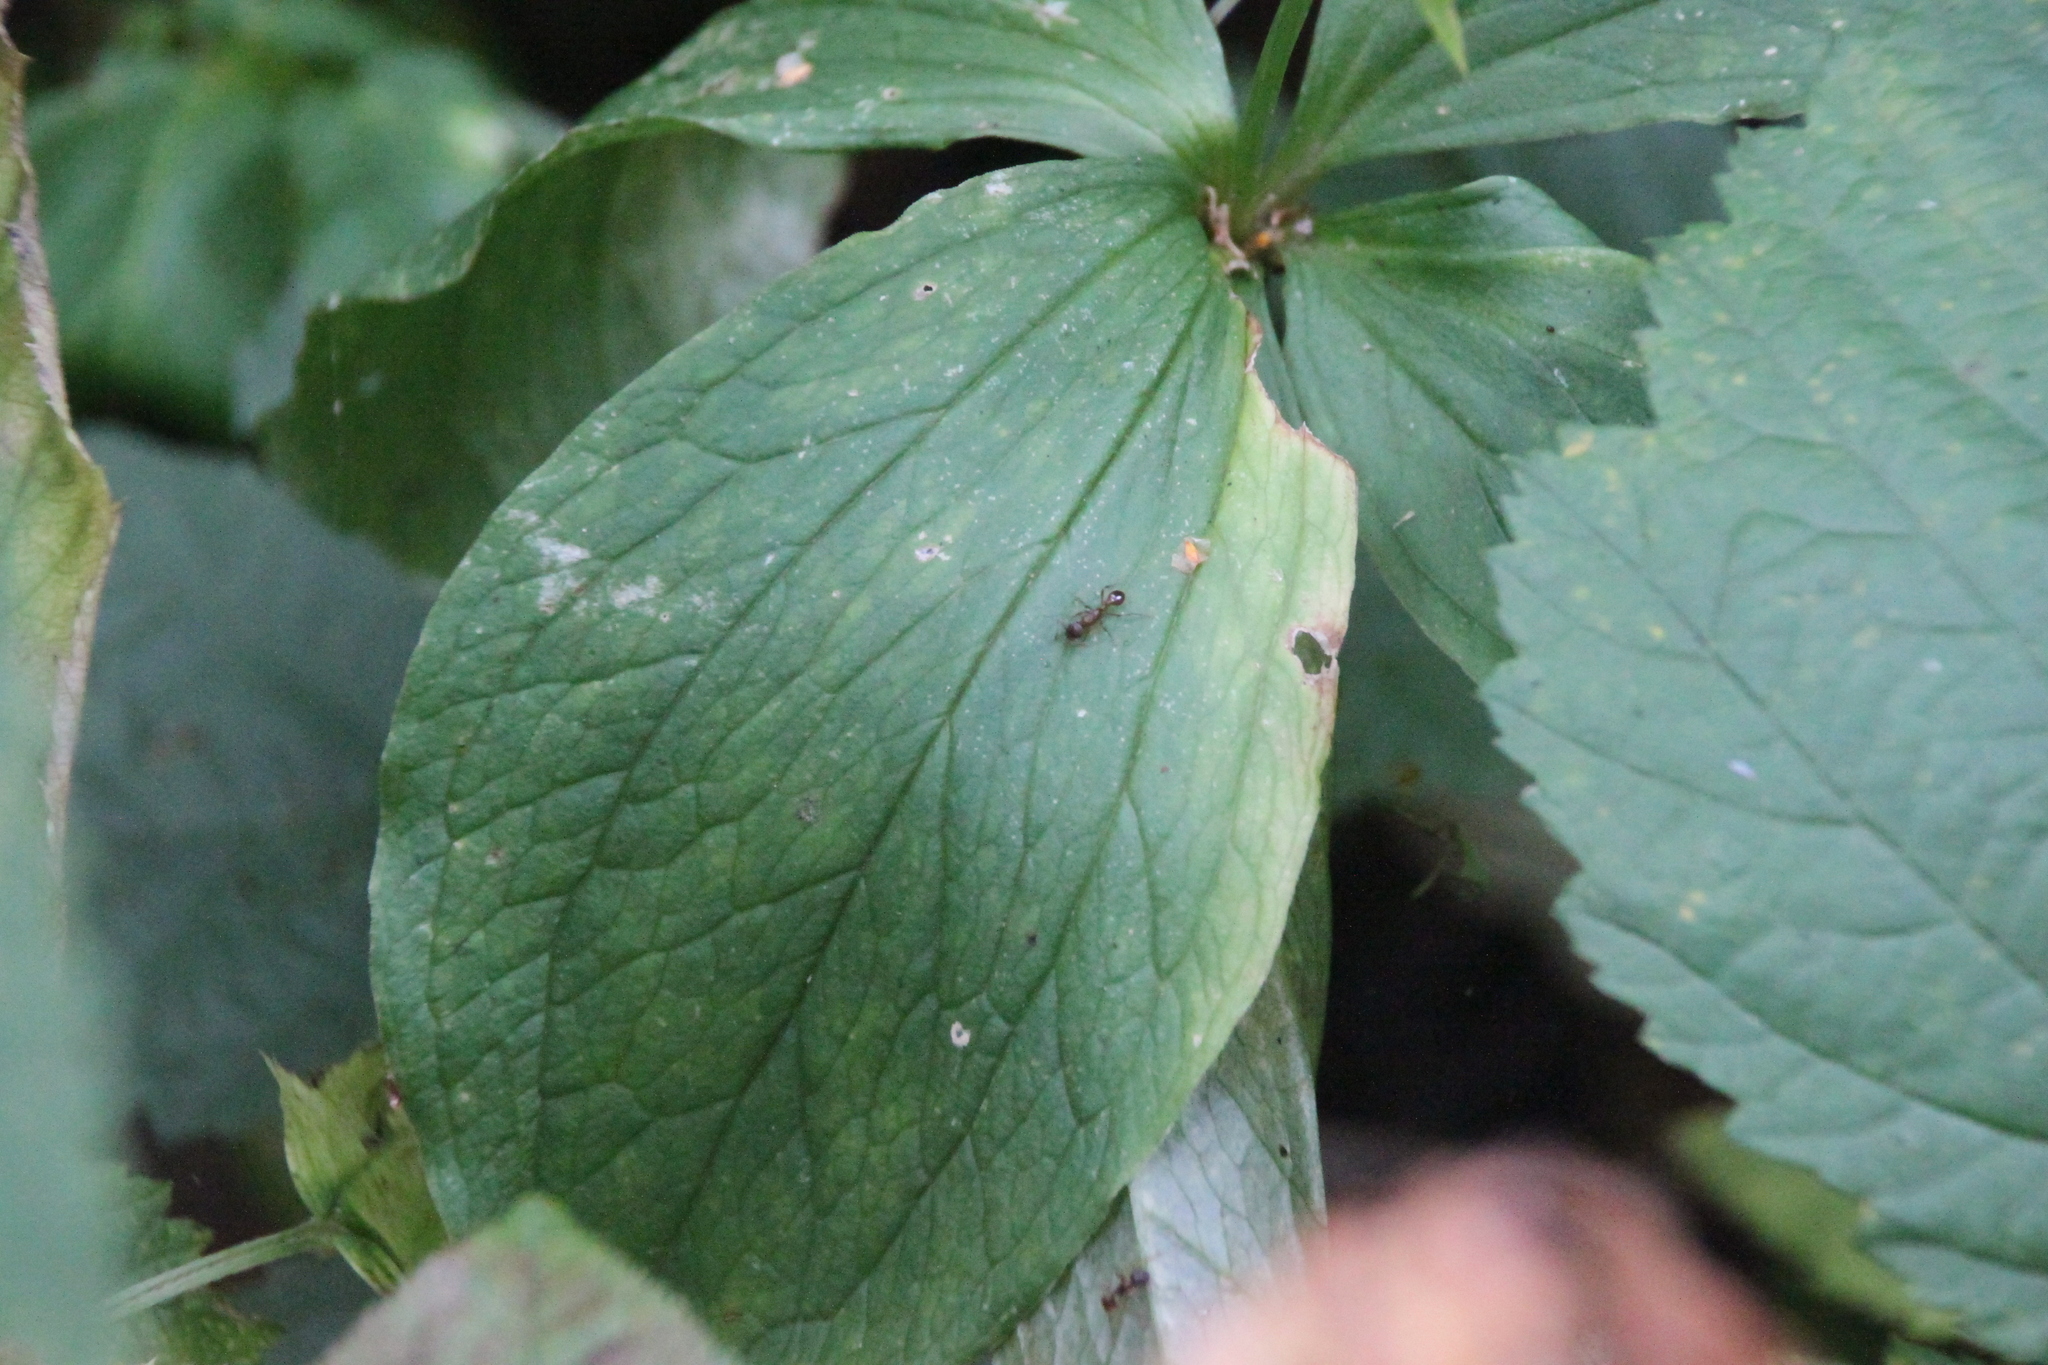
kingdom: Plantae
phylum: Tracheophyta
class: Liliopsida
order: Liliales
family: Melanthiaceae
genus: Paris
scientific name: Paris quadrifolia
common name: Herb-paris
